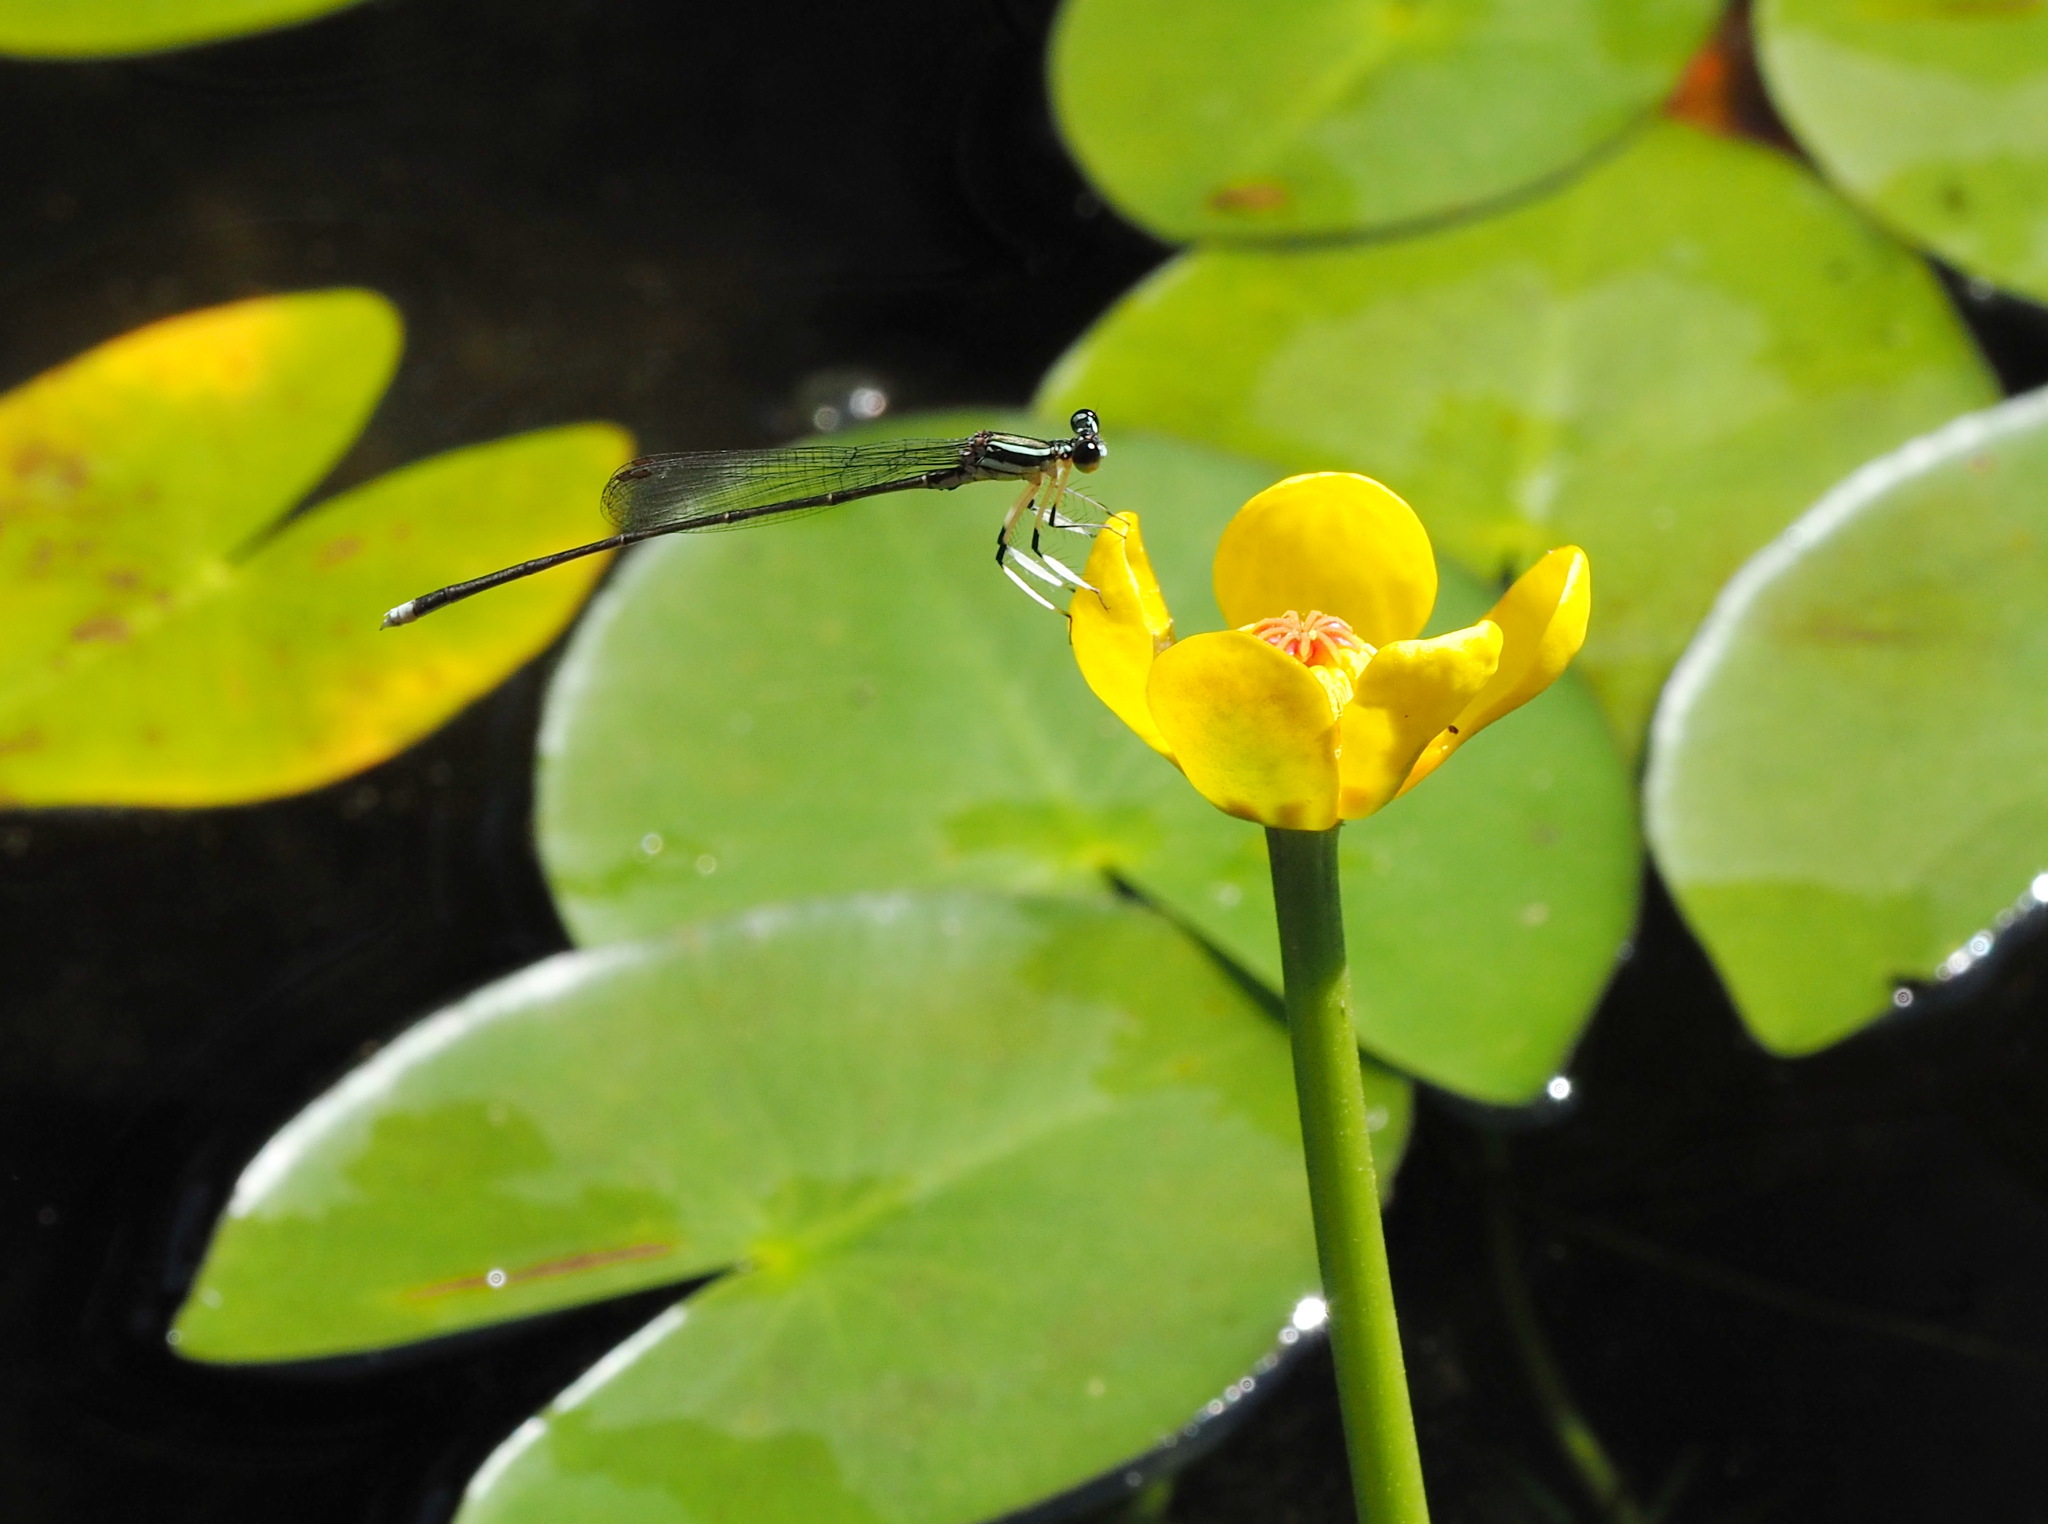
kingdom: Animalia
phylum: Arthropoda
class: Insecta
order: Odonata
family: Platycnemididae
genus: Pseudocopera
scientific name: Pseudocopera ciliata
